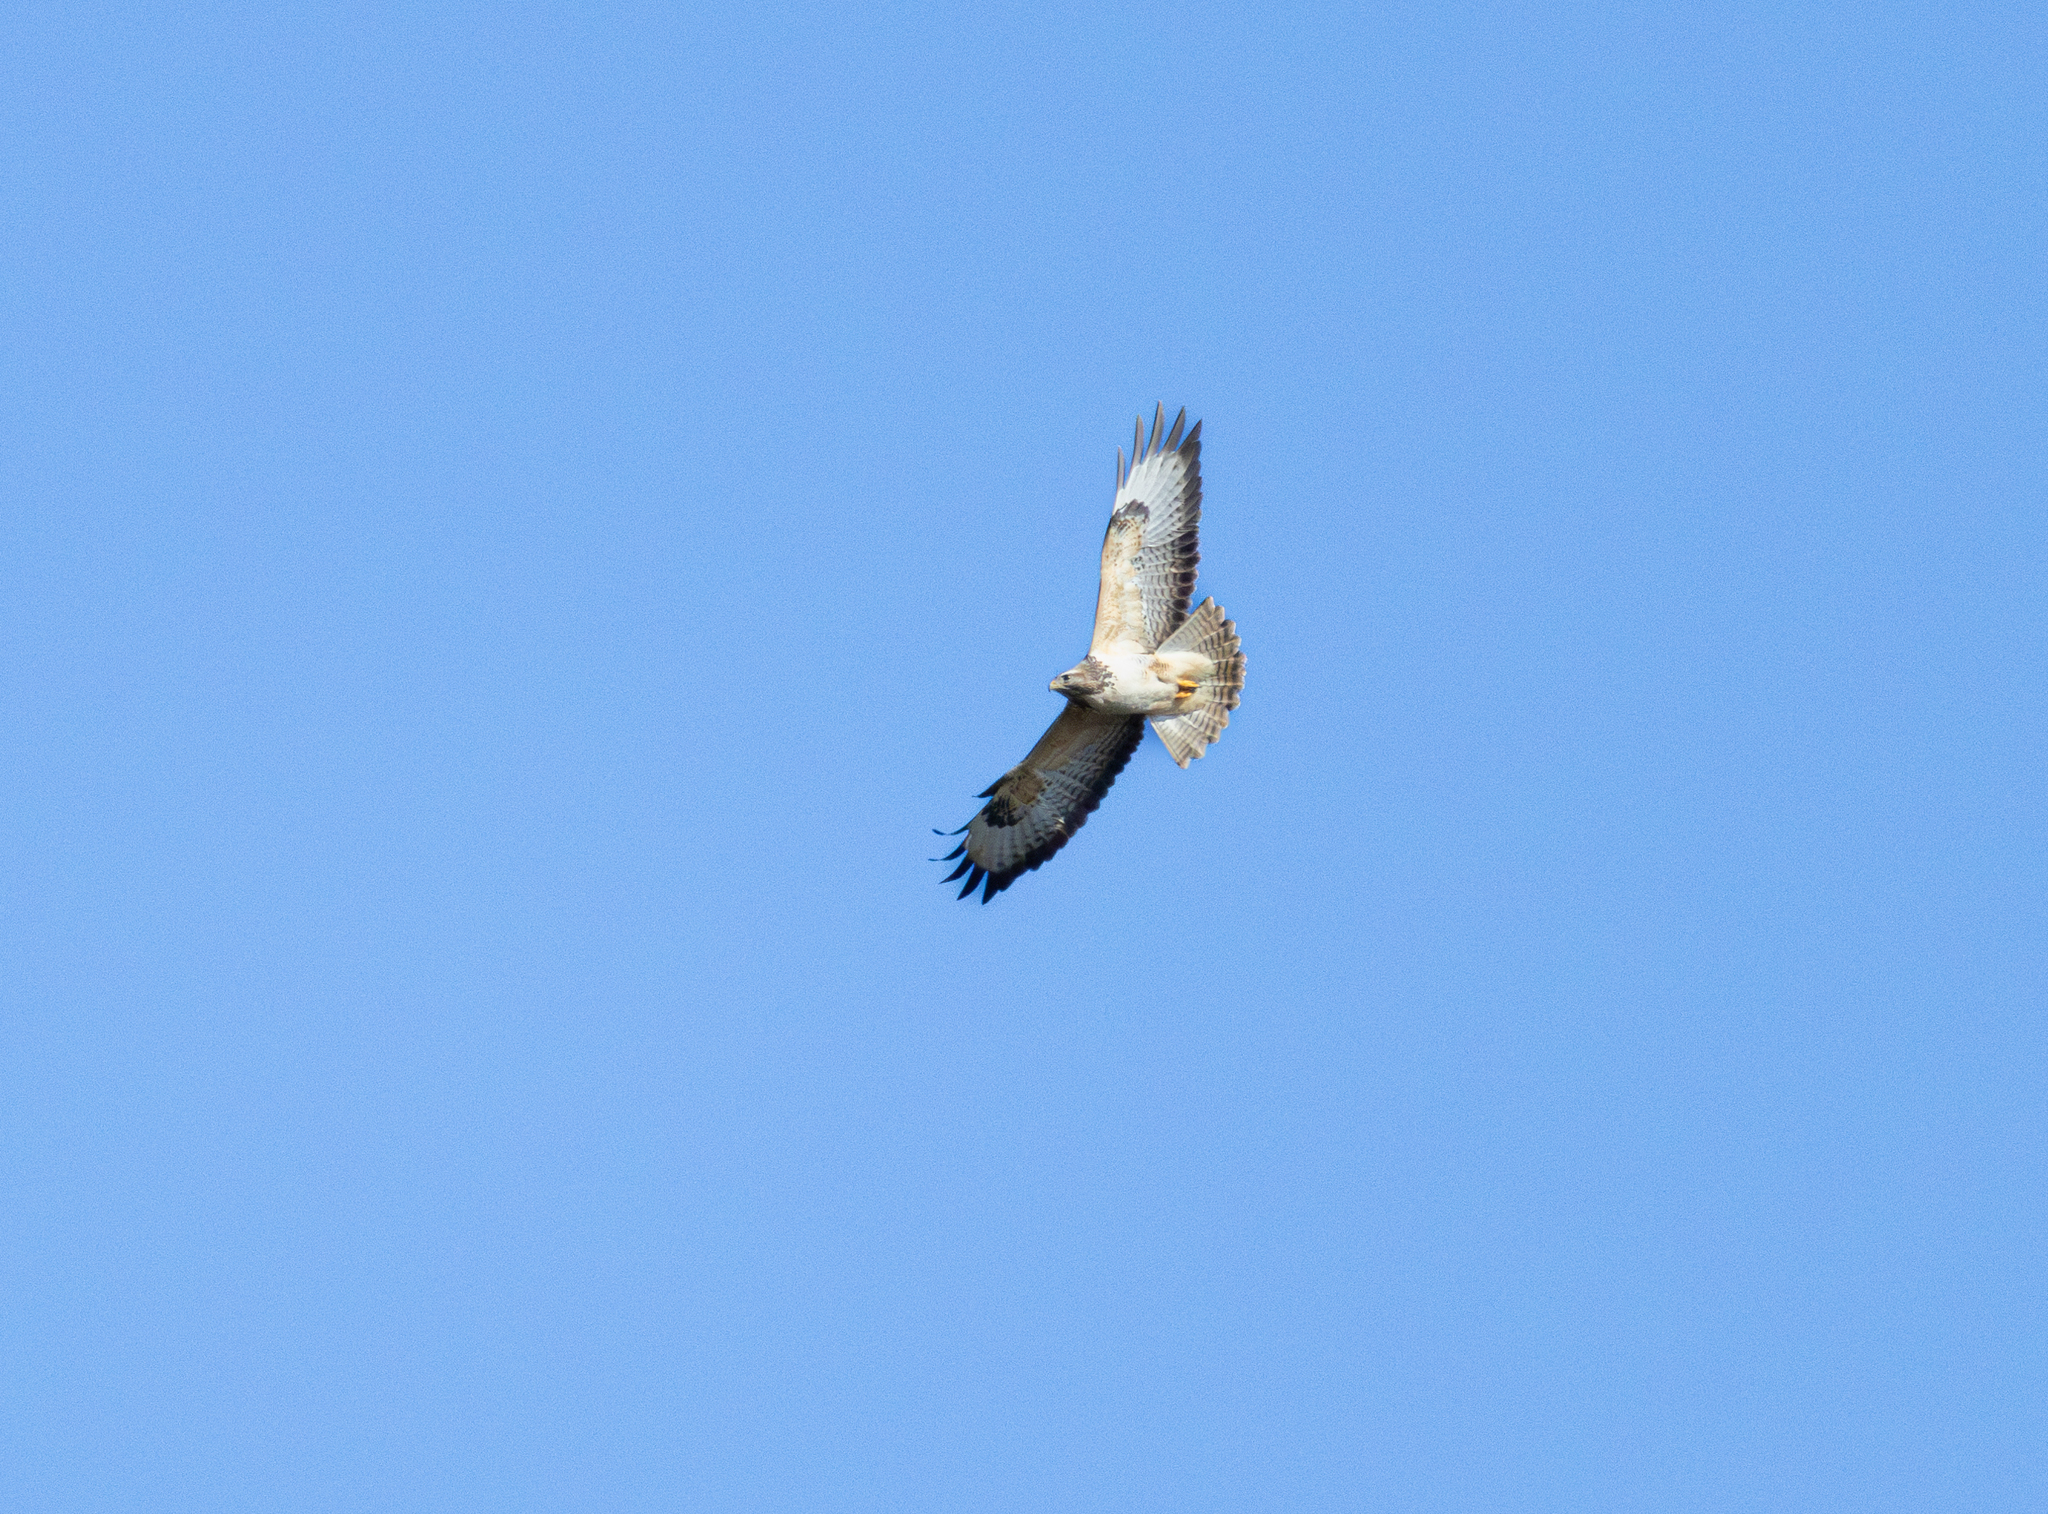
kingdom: Animalia
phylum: Chordata
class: Aves
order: Accipitriformes
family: Accipitridae
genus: Buteo
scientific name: Buteo buteo
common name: Common buzzard
